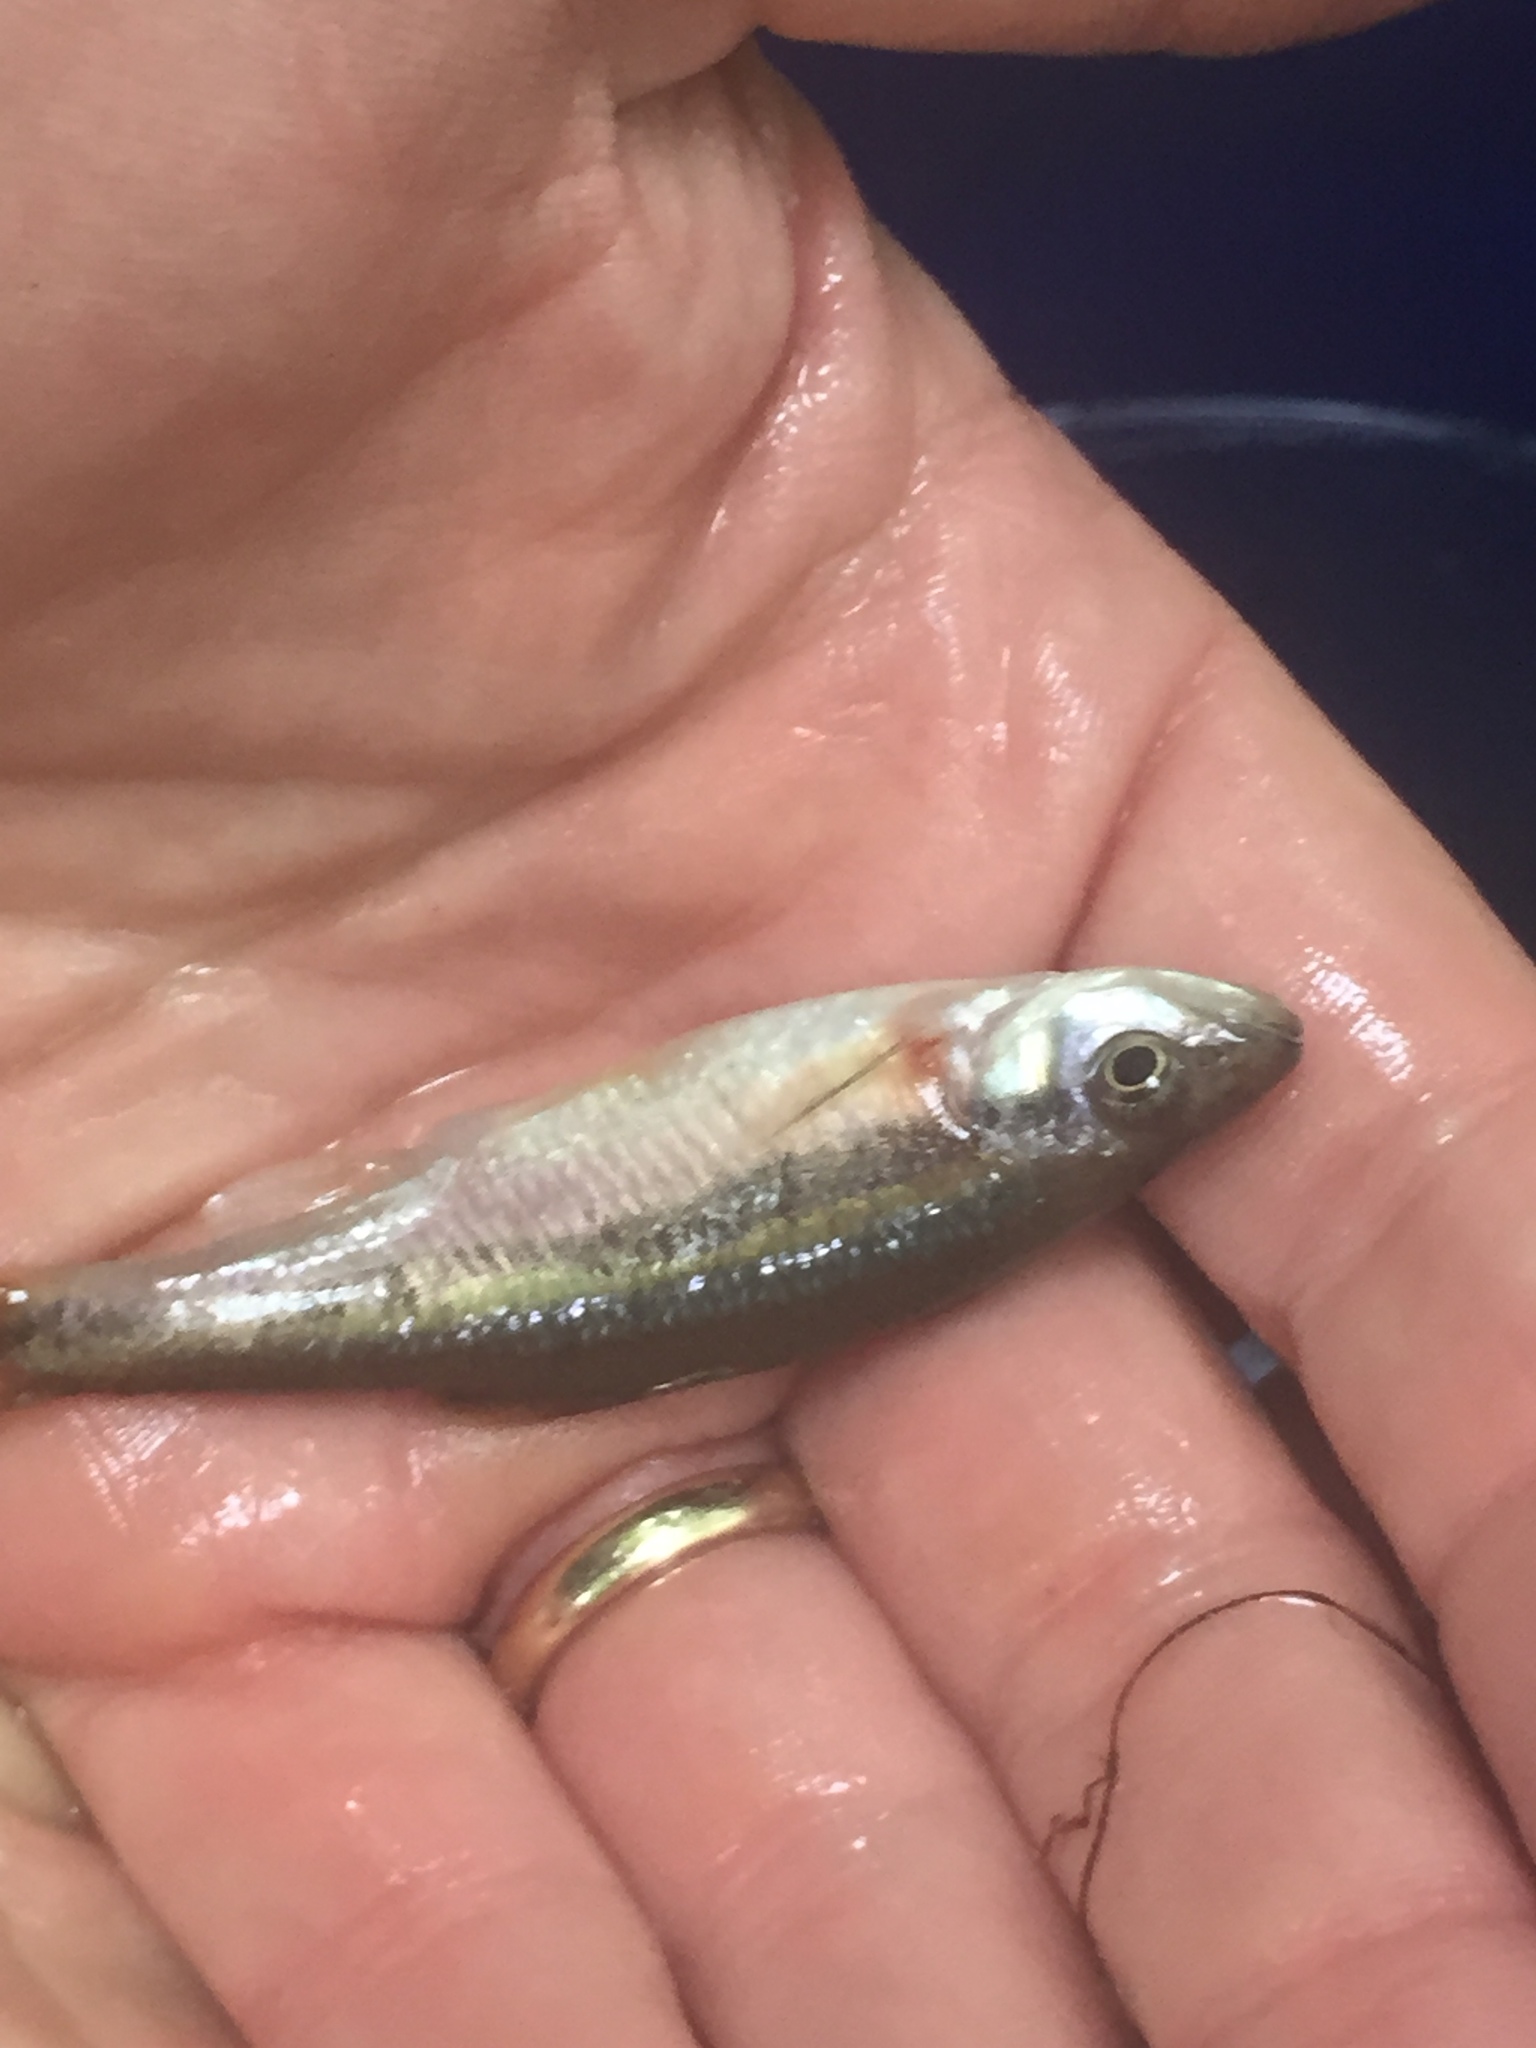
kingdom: Animalia
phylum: Chordata
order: Cypriniformes
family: Cyprinidae
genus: Clinostomus
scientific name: Clinostomus funduloides
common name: Rosyside dace
